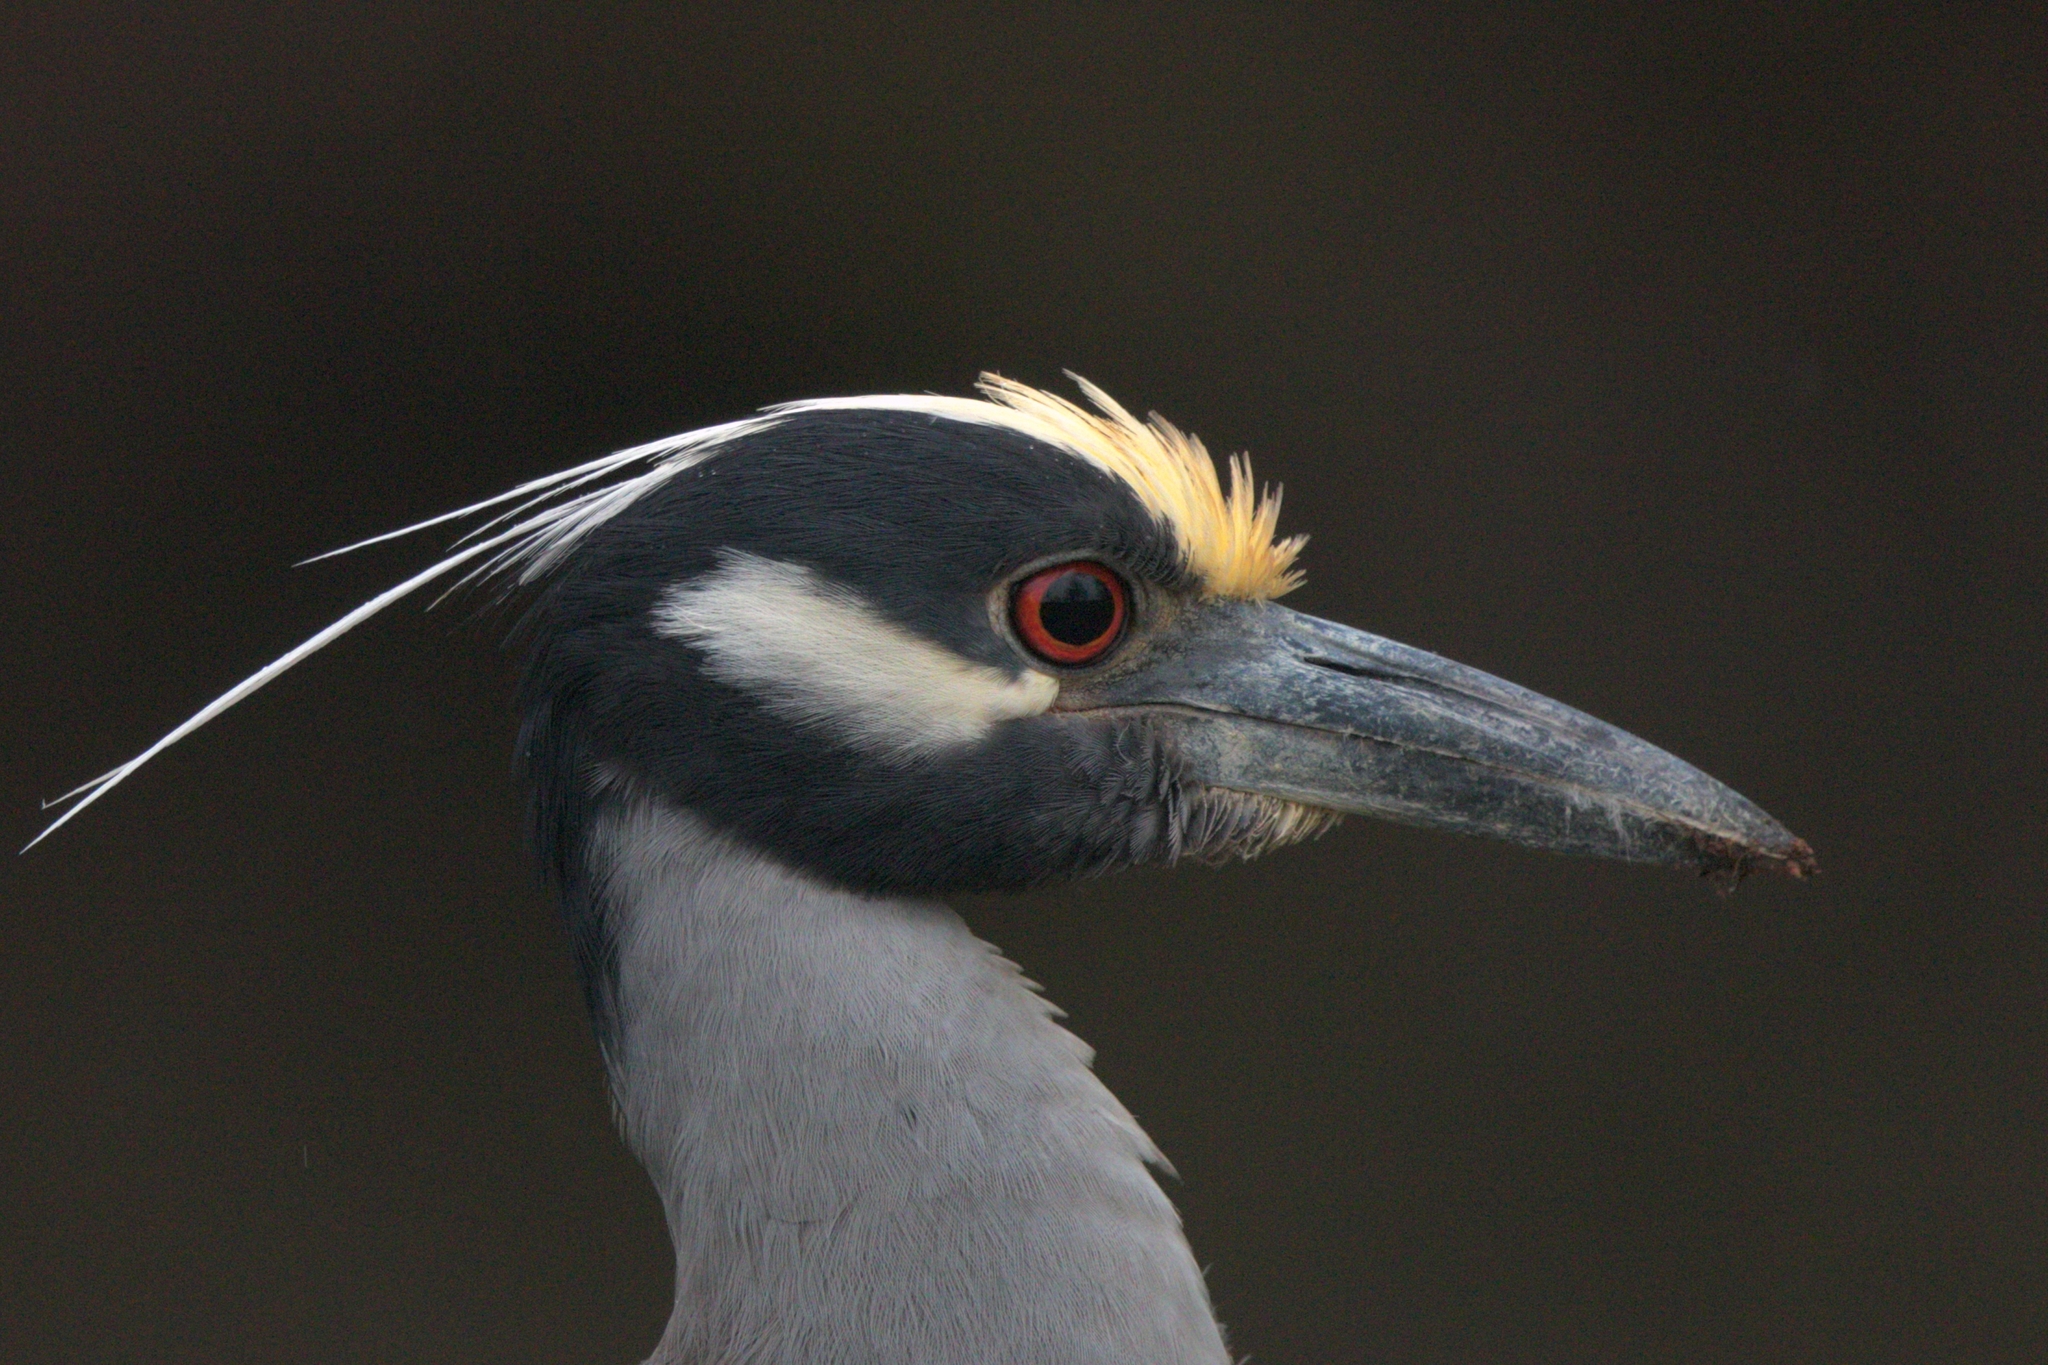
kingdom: Animalia
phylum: Chordata
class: Aves
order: Pelecaniformes
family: Ardeidae
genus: Nyctanassa
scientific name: Nyctanassa violacea
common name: Yellow-crowned night heron
